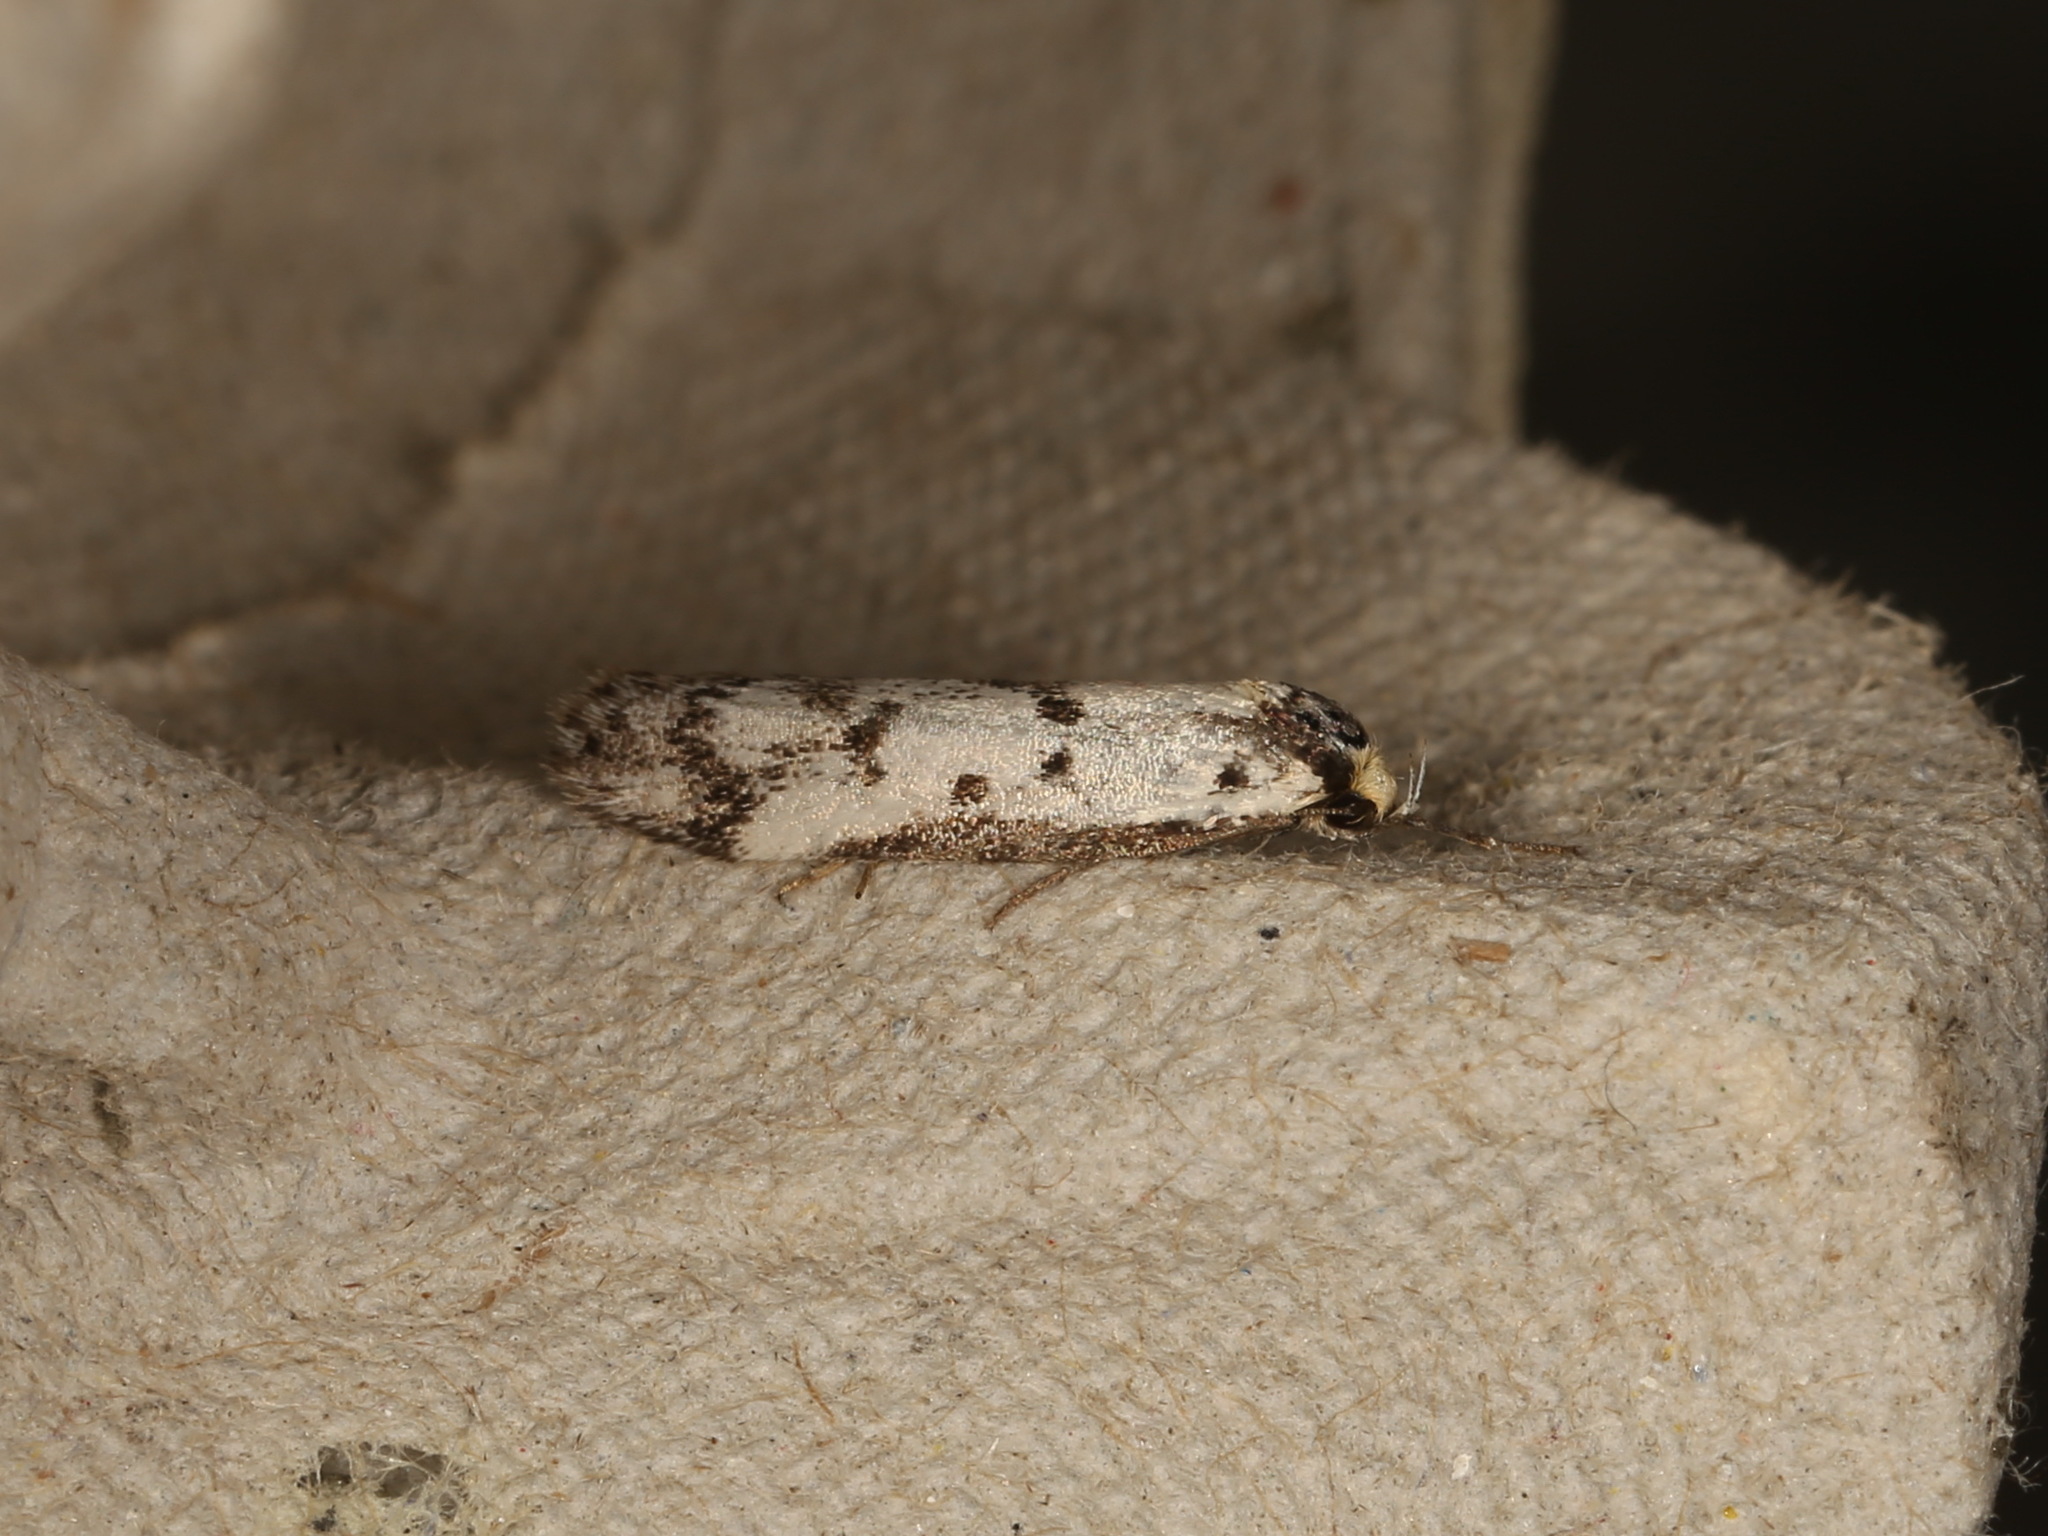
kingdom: Animalia
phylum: Arthropoda
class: Insecta
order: Lepidoptera
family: Oecophoridae
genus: Philobota
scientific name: Philobota lysizona
